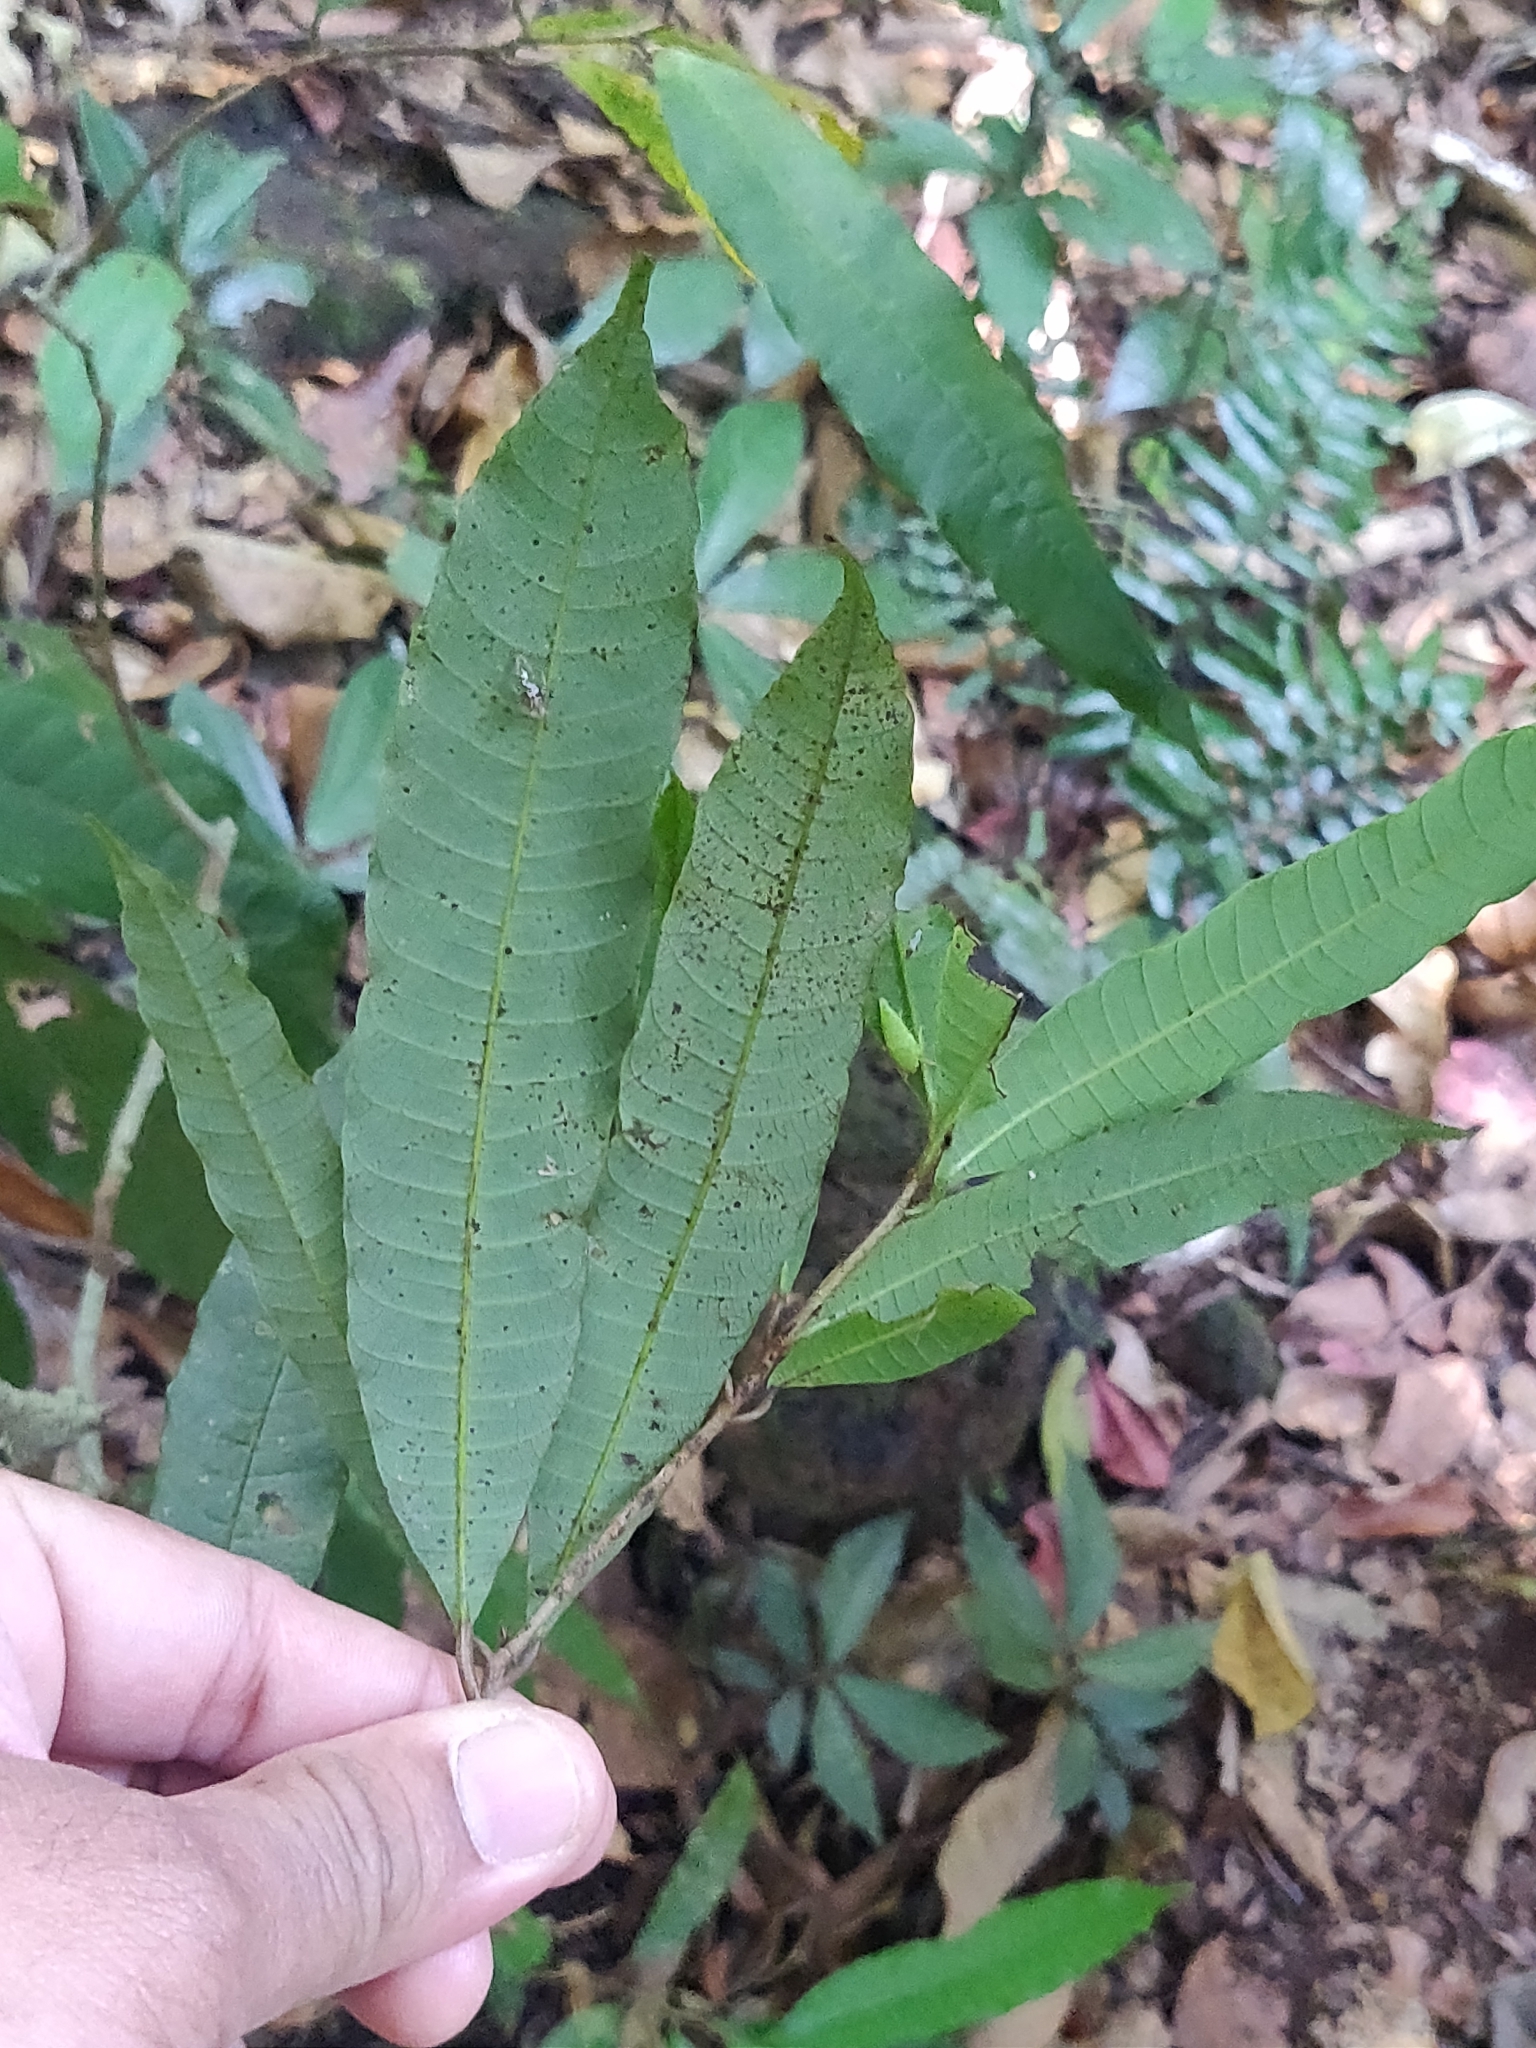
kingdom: Plantae
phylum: Tracheophyta
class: Magnoliopsida
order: Sapindales
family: Anacardiaceae
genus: Nothopegia
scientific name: Nothopegia beddomei
